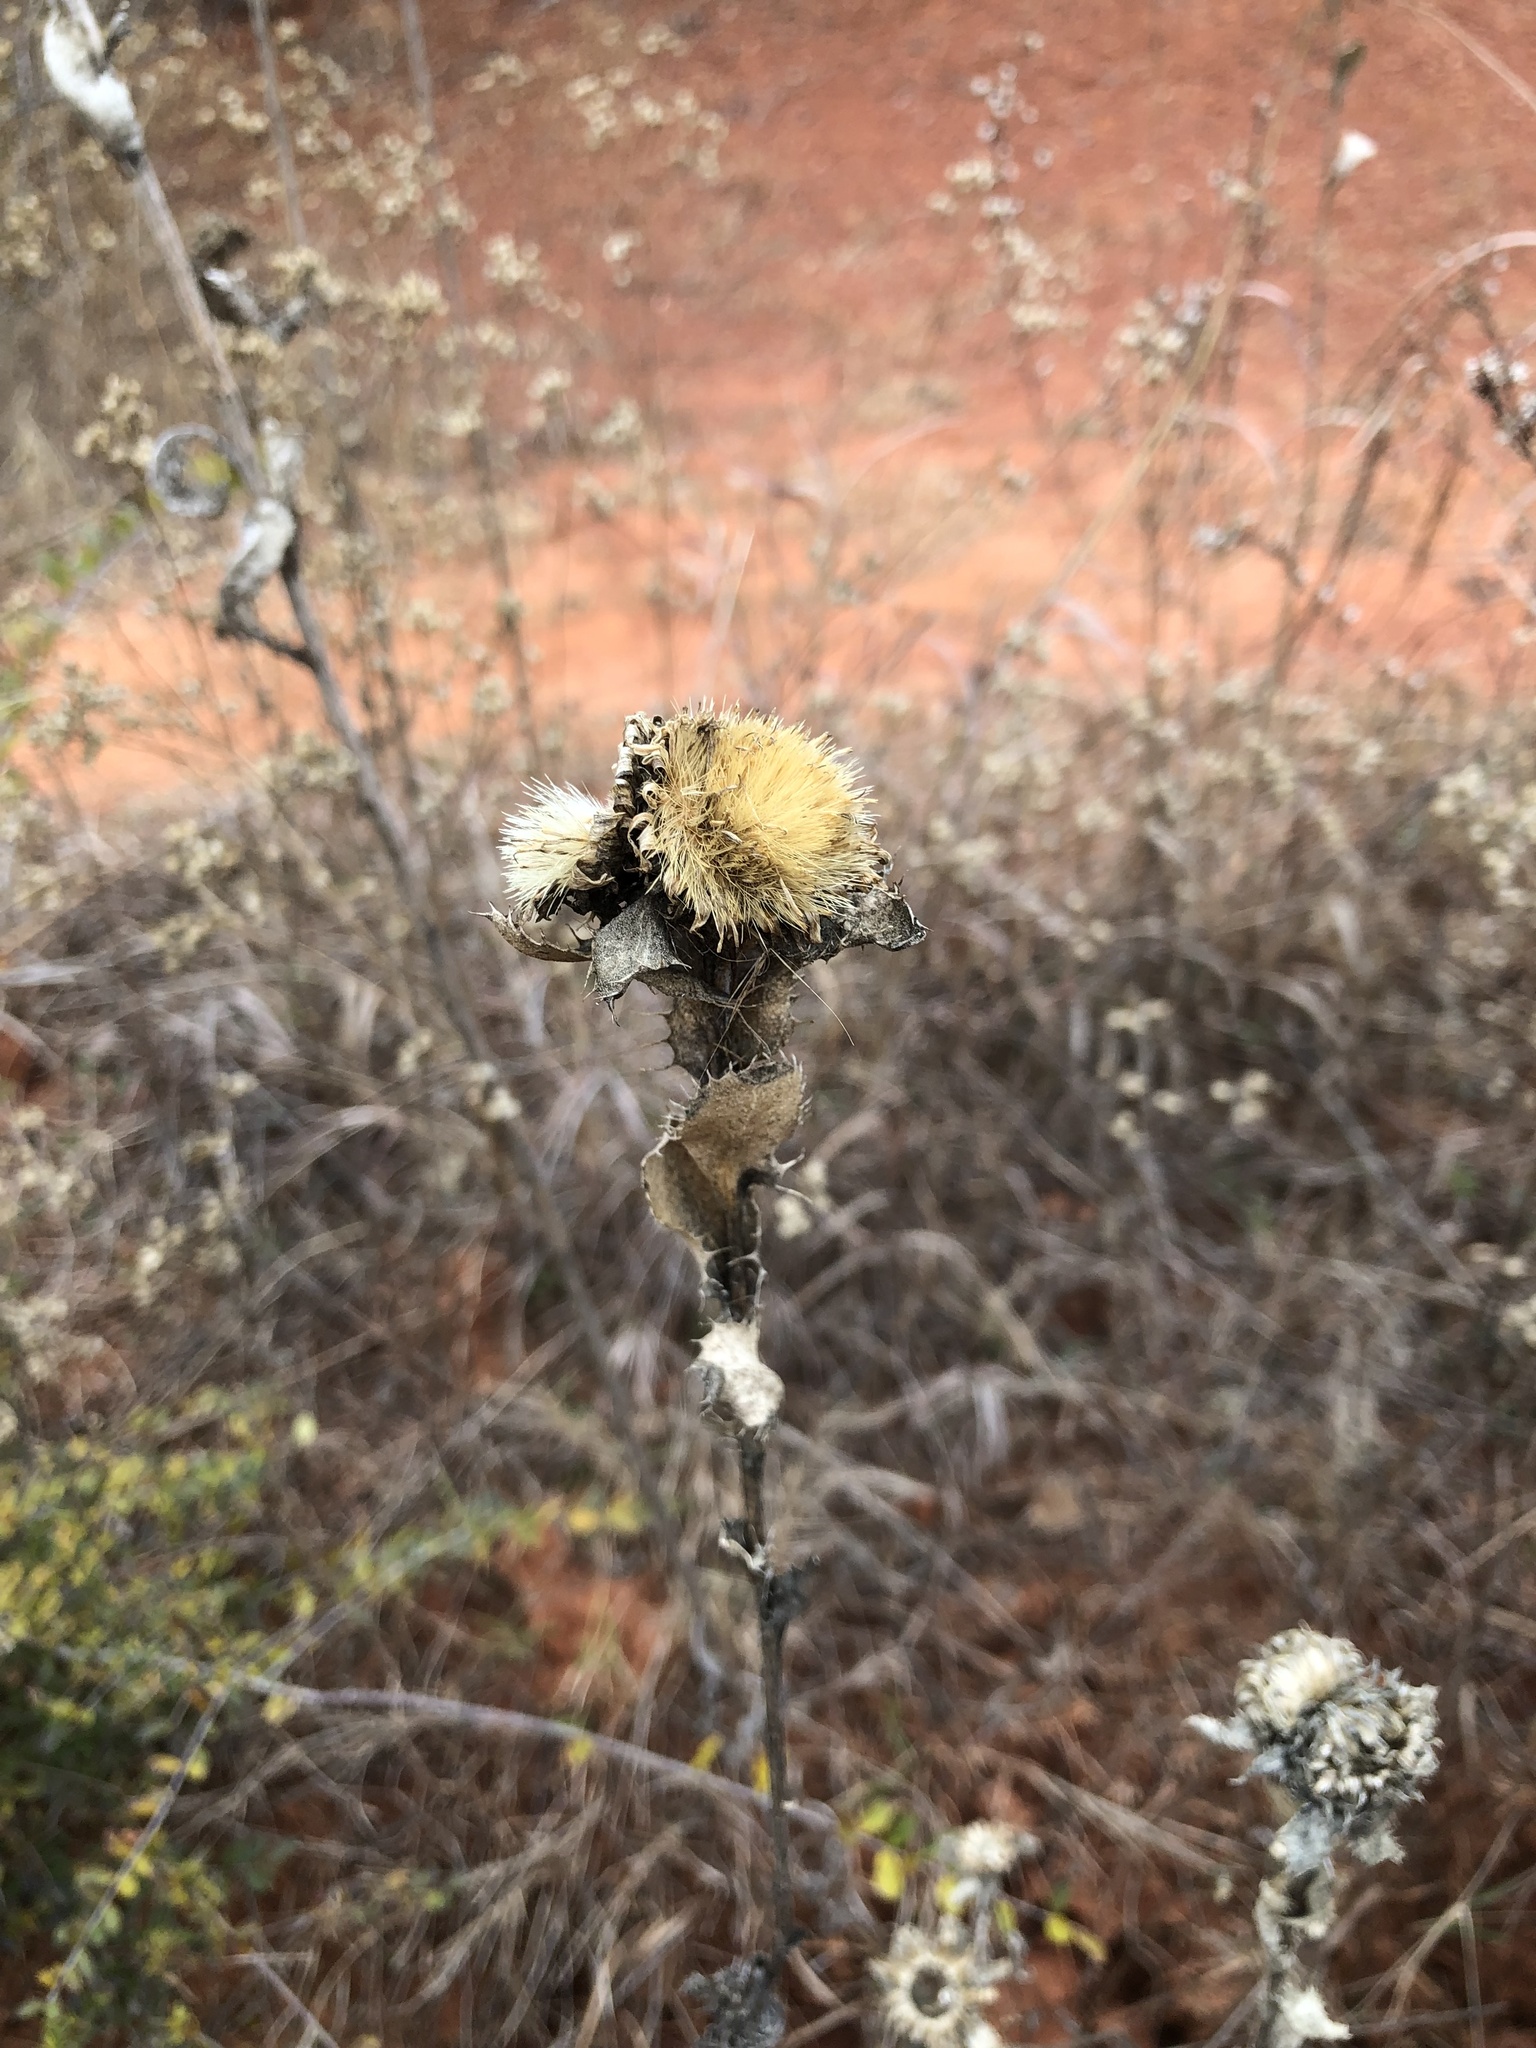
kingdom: Plantae
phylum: Tracheophyta
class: Magnoliopsida
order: Asterales
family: Asteraceae
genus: Grindelia
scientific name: Grindelia ciliata
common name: Goldenweed
